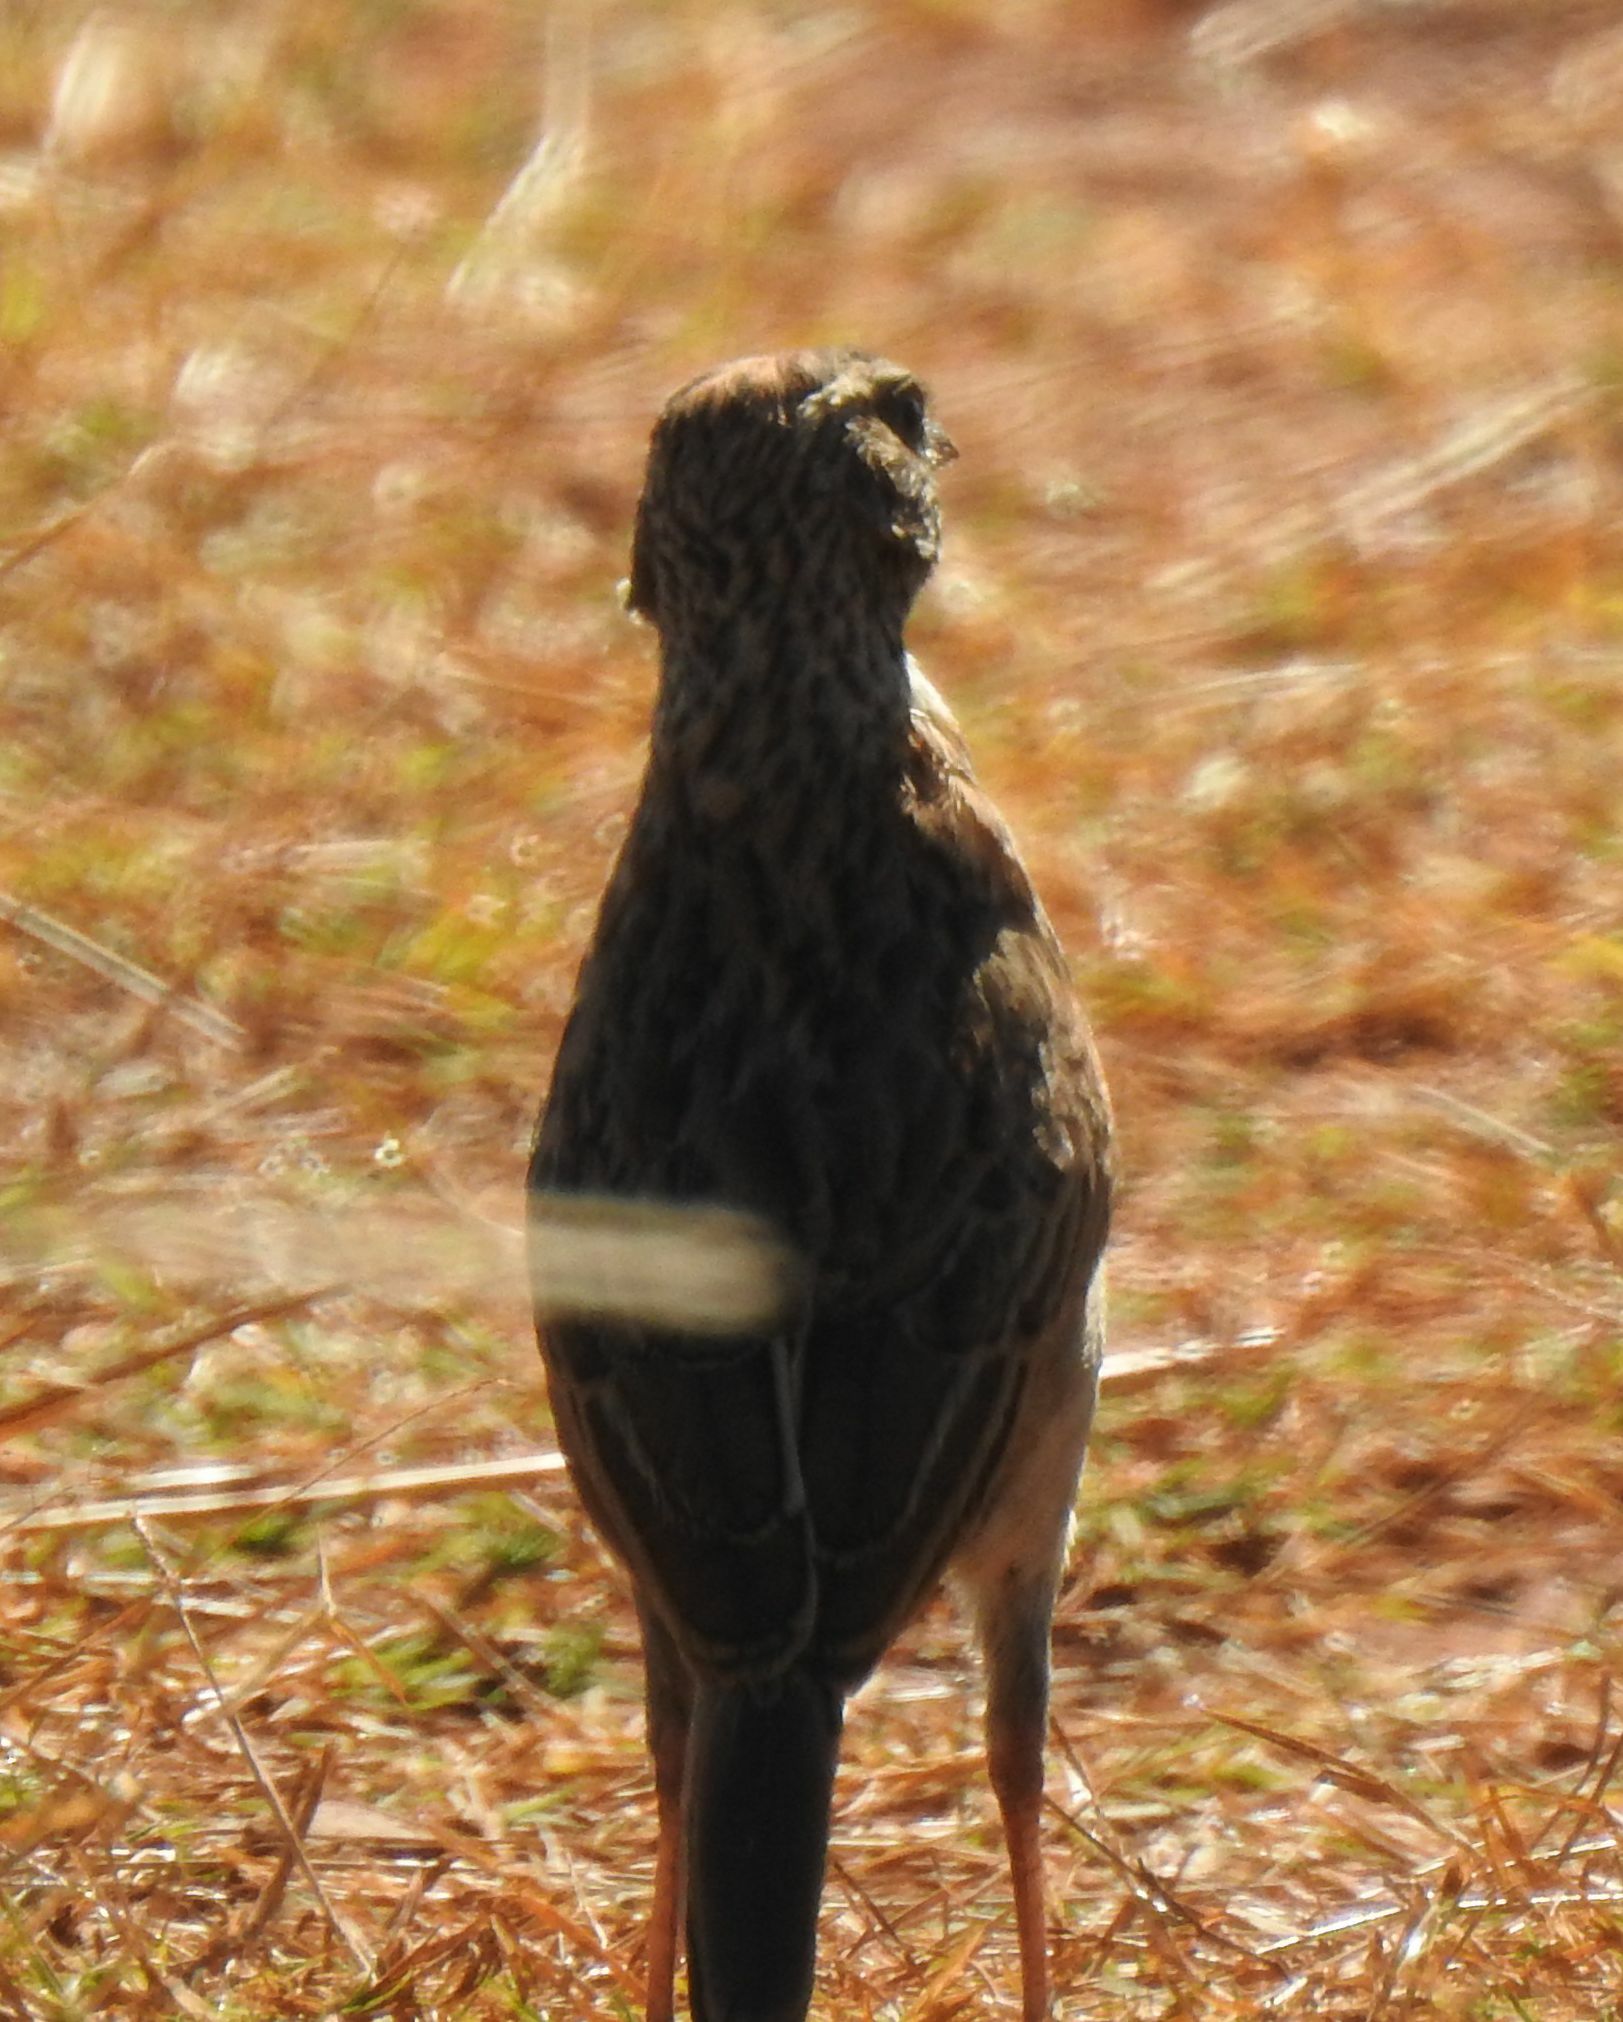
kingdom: Animalia
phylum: Chordata
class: Aves
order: Passeriformes
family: Alaudidae
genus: Mirafra
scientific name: Mirafra africana
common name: Rufous-naped lark
